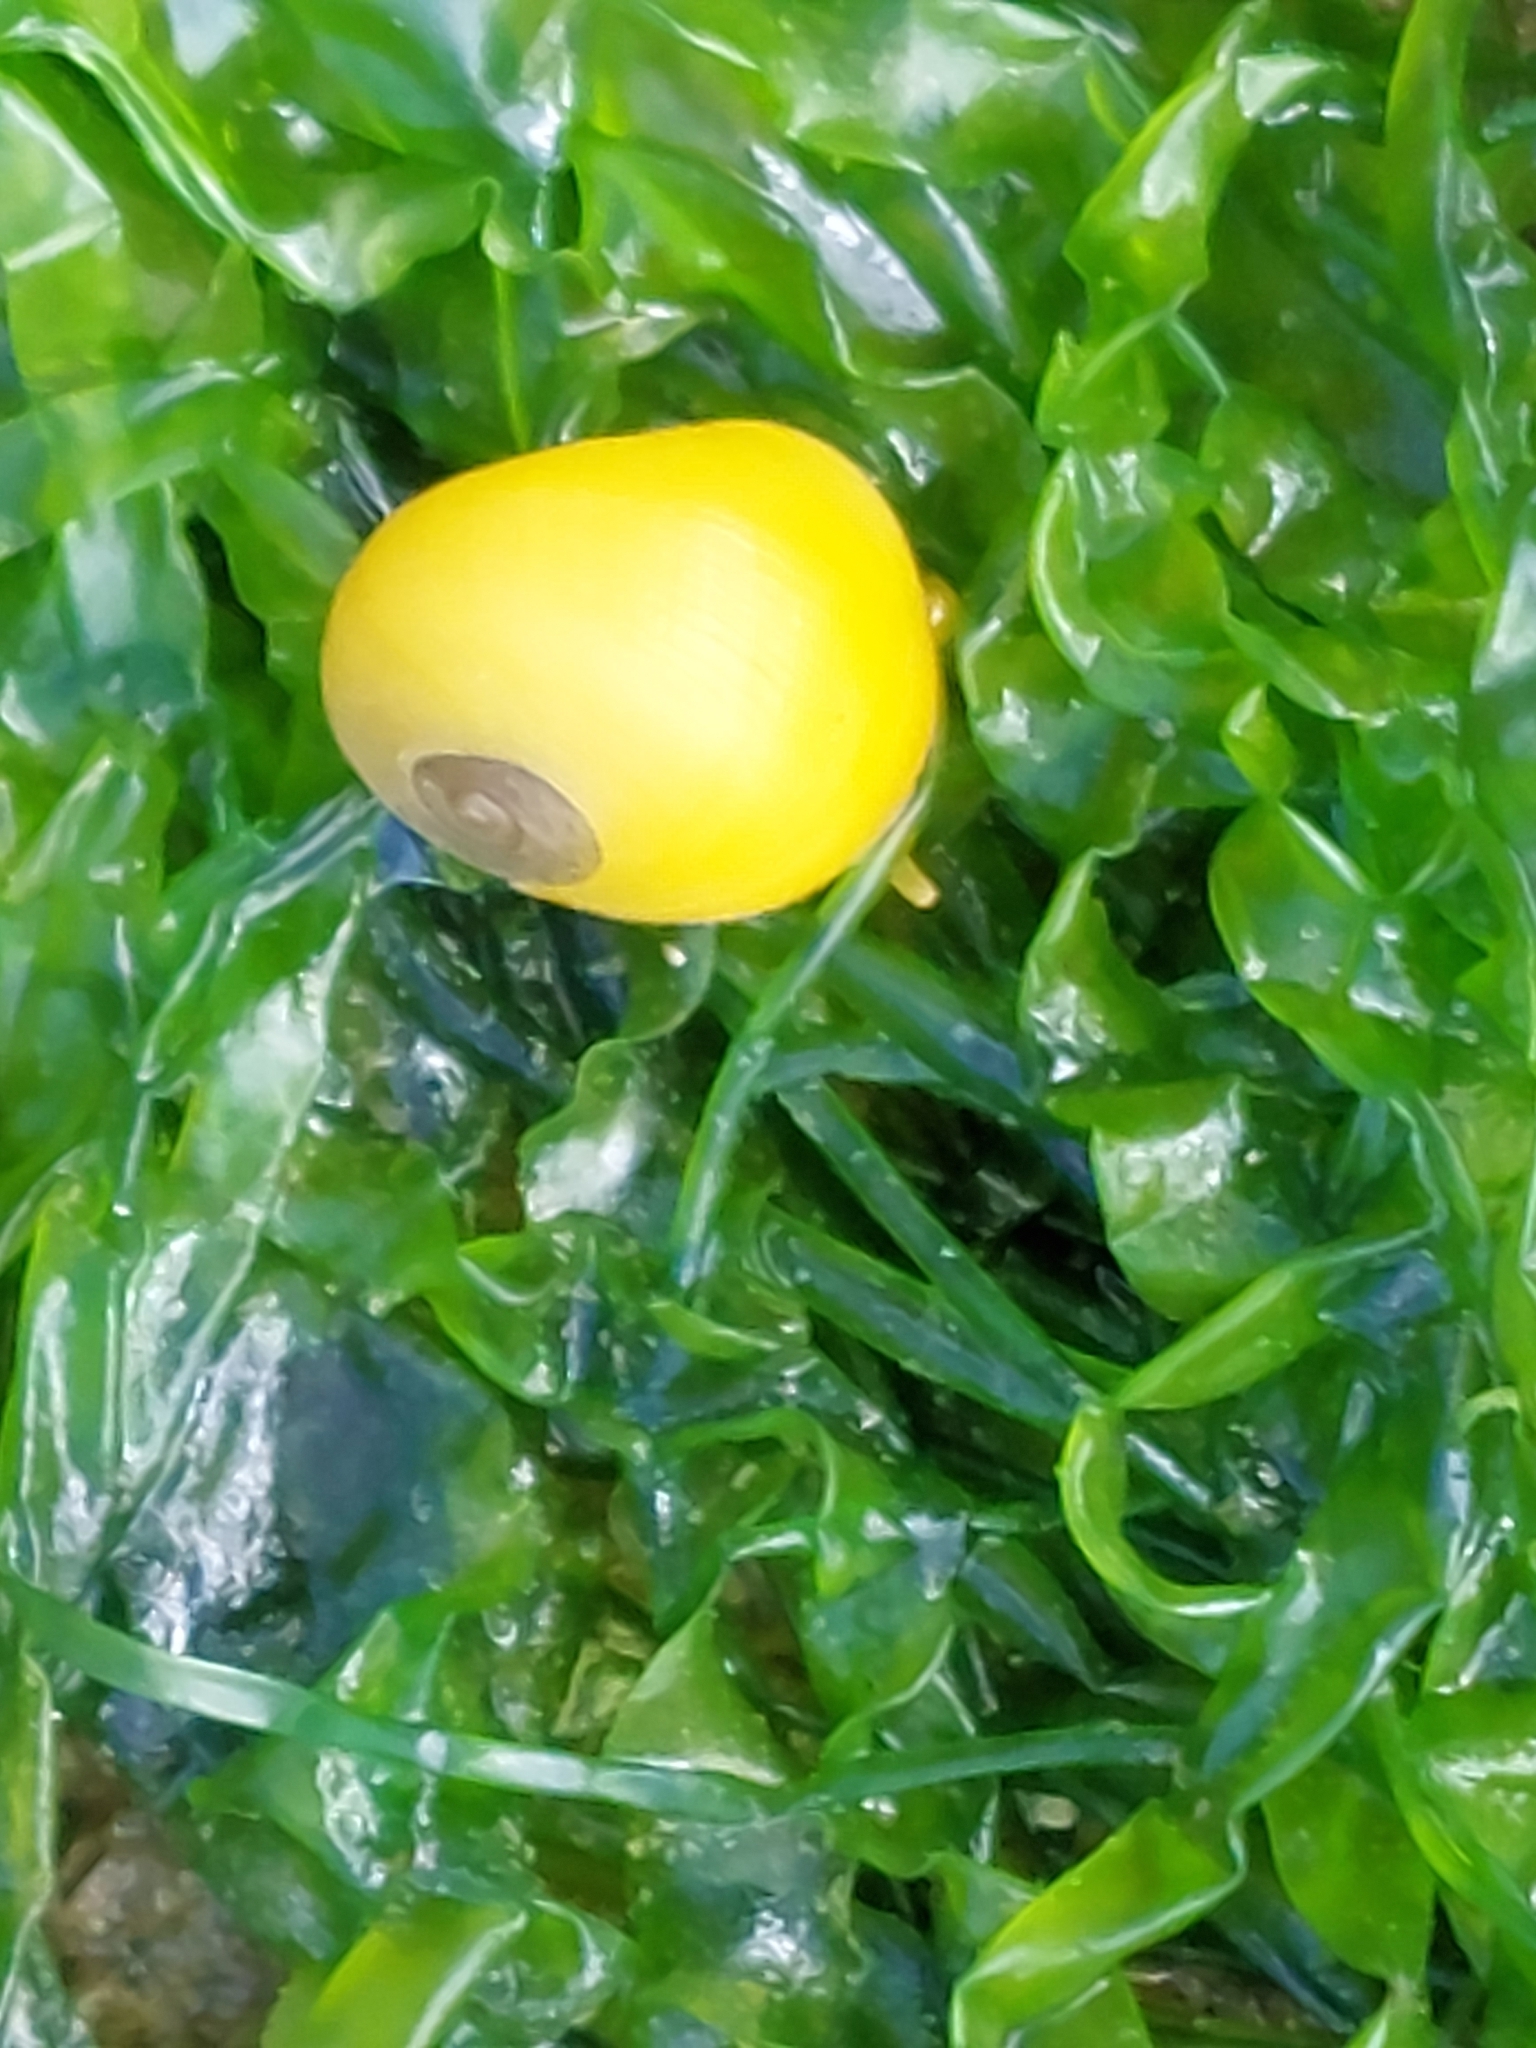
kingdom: Animalia
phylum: Mollusca
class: Gastropoda
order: Littorinimorpha
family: Littorinidae
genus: Littorina
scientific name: Littorina
